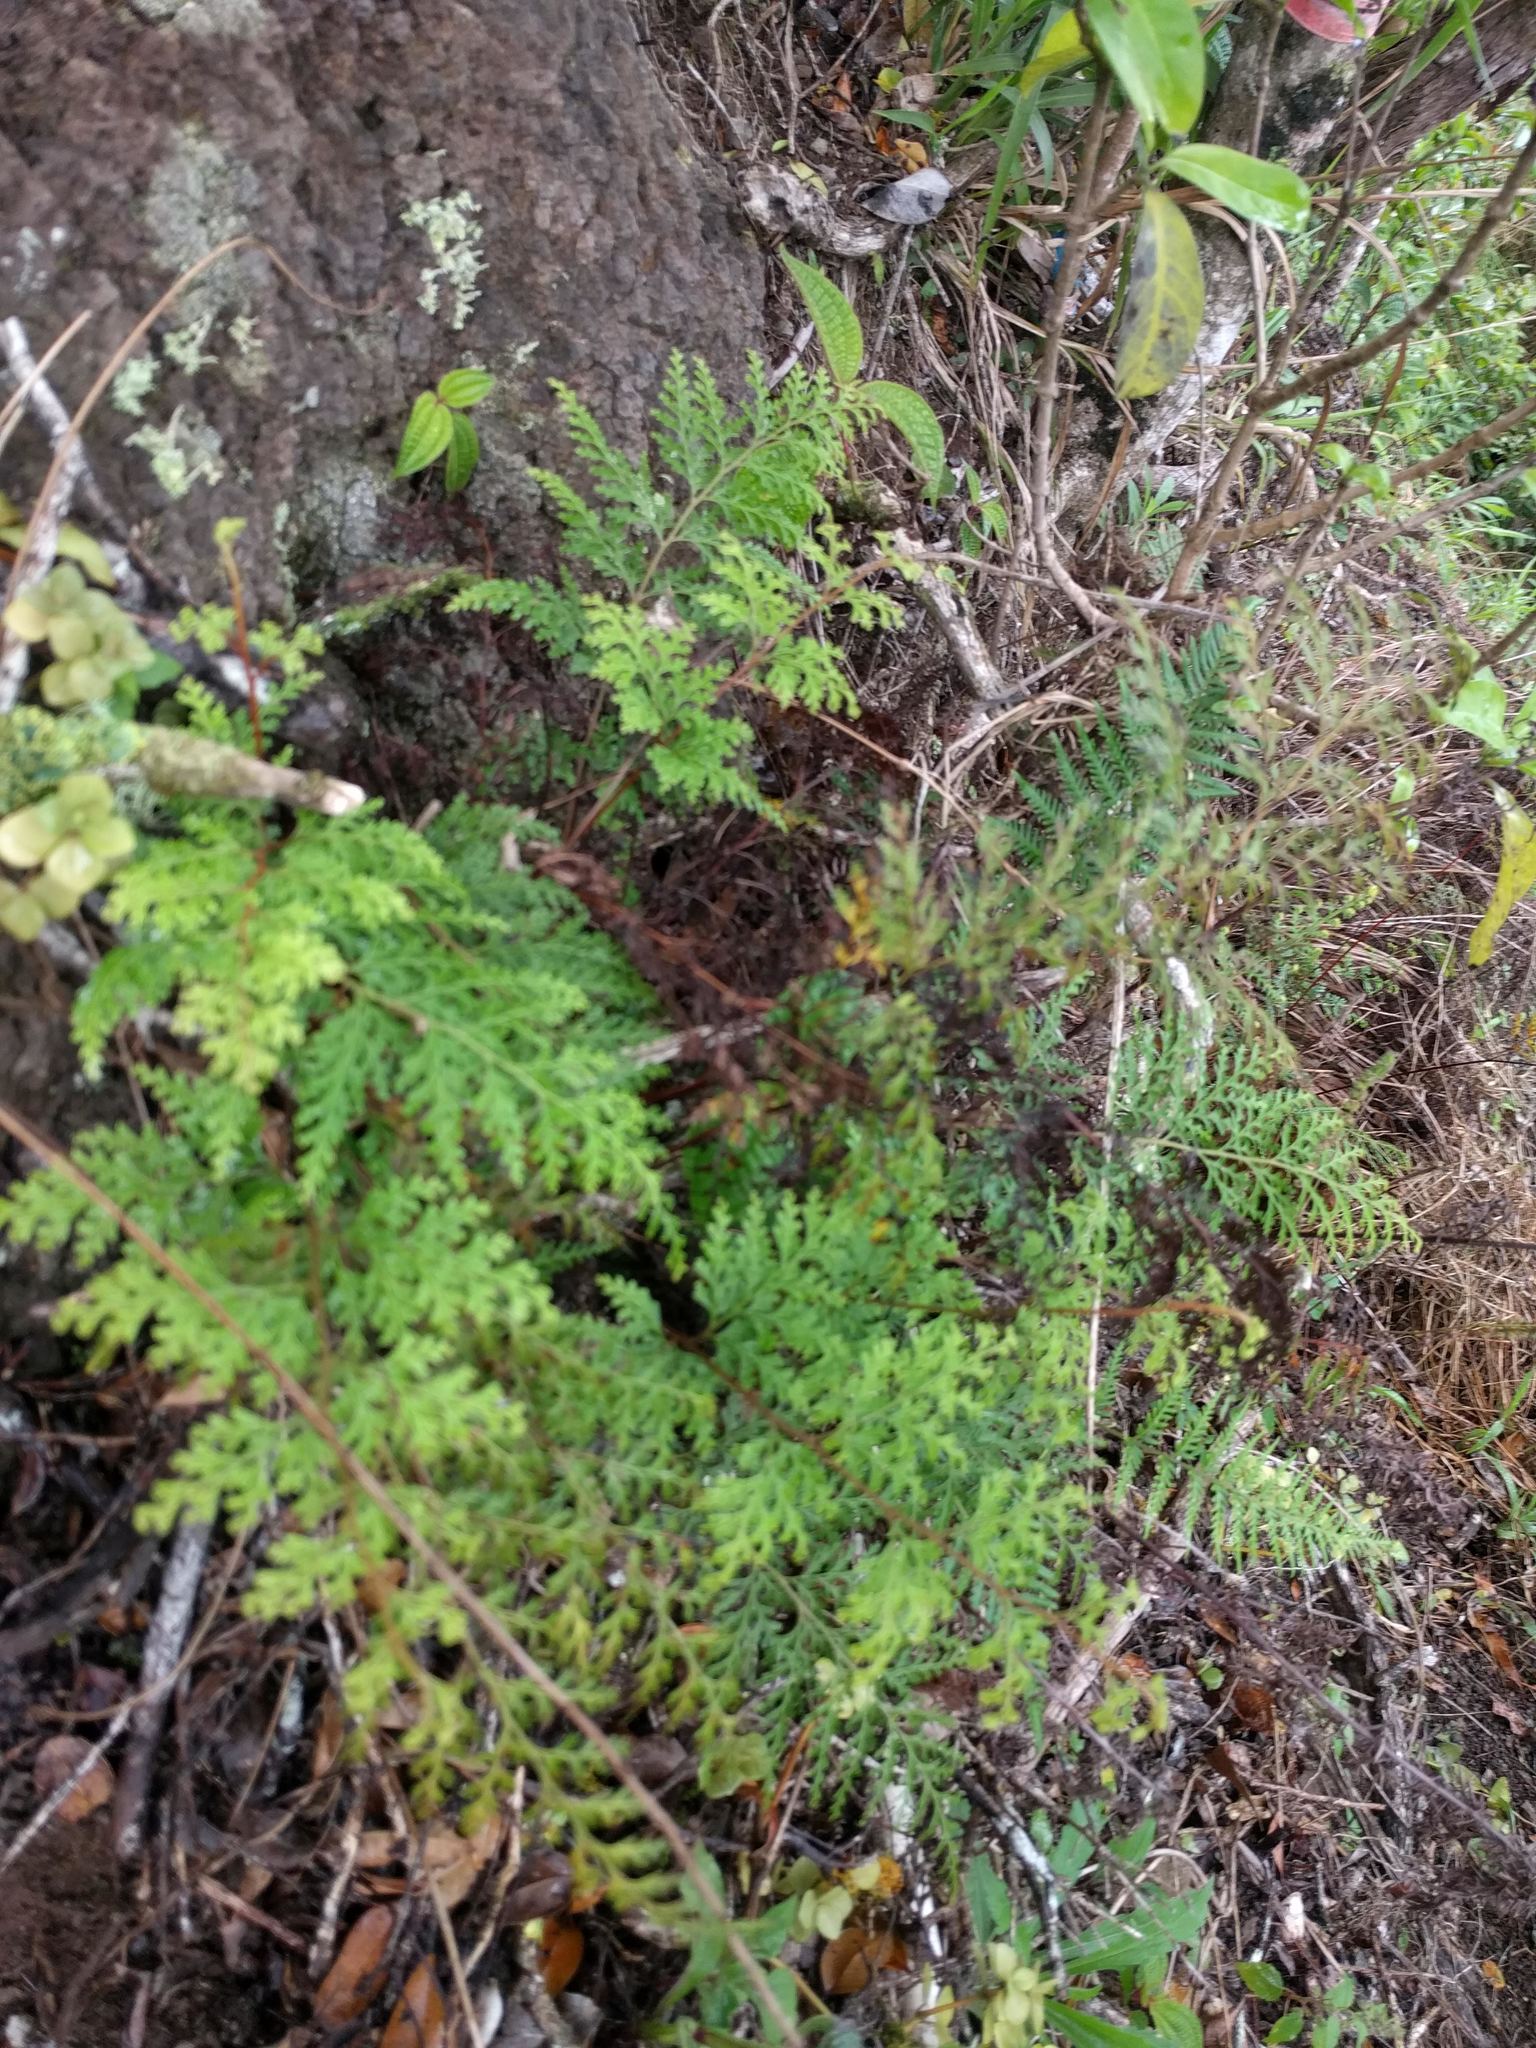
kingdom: Plantae
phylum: Tracheophyta
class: Polypodiopsida
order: Polypodiales
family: Lindsaeaceae
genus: Odontosoria
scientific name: Odontosoria chinensis
